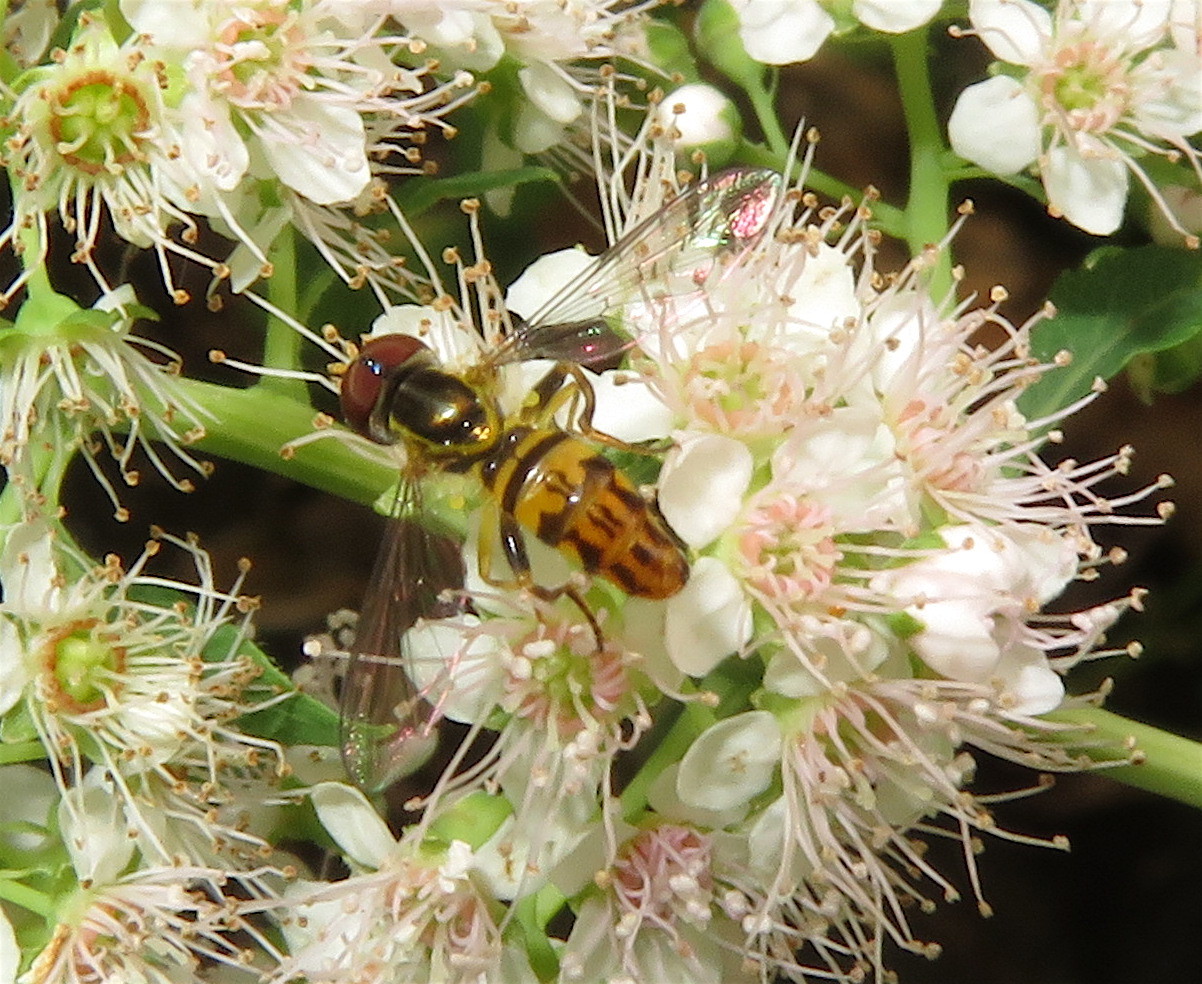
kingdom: Animalia
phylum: Arthropoda
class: Insecta
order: Diptera
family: Syrphidae
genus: Toxomerus
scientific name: Toxomerus geminatus
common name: Eastern calligrapher
